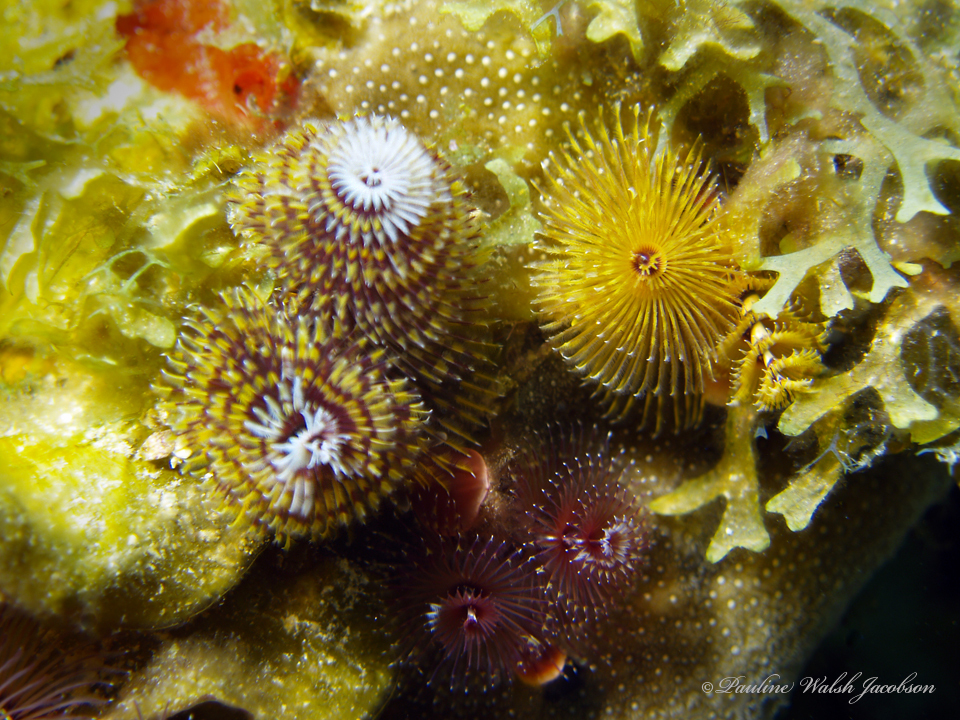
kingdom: Animalia
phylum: Annelida
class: Polychaeta
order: Sabellida
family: Serpulidae
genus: Spirobranchus
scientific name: Spirobranchus giganteus
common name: Christmas tree worm
